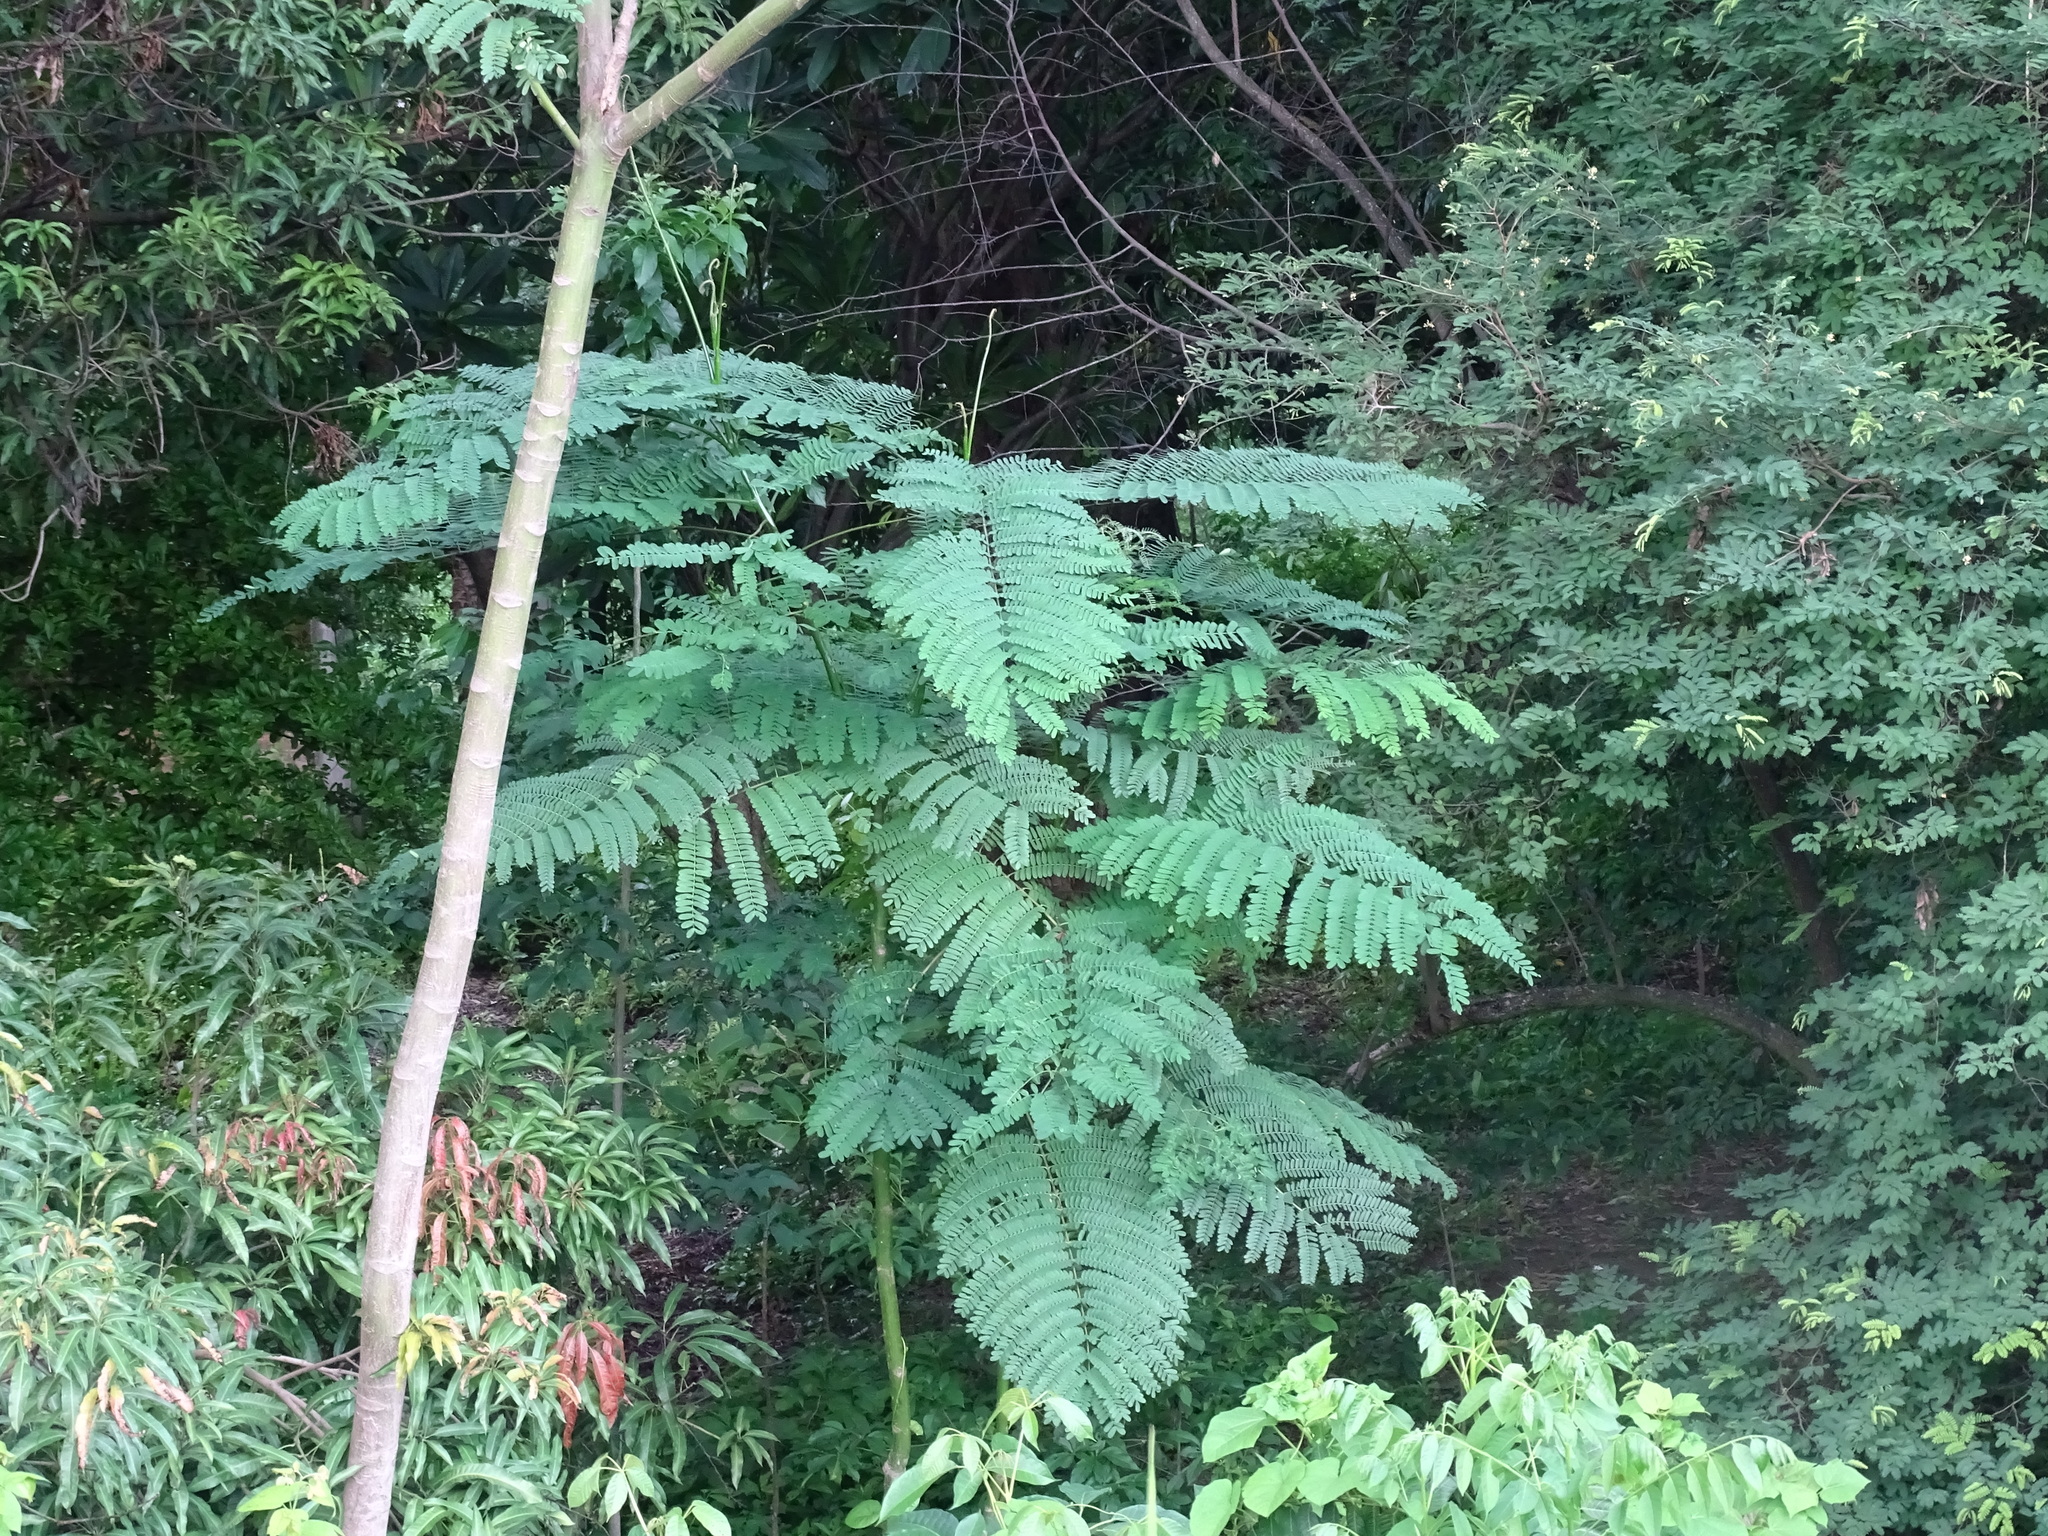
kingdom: Plantae
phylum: Tracheophyta
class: Magnoliopsida
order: Fabales
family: Fabaceae
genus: Schizolobium
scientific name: Schizolobium parahyba
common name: Brazilian firetree
